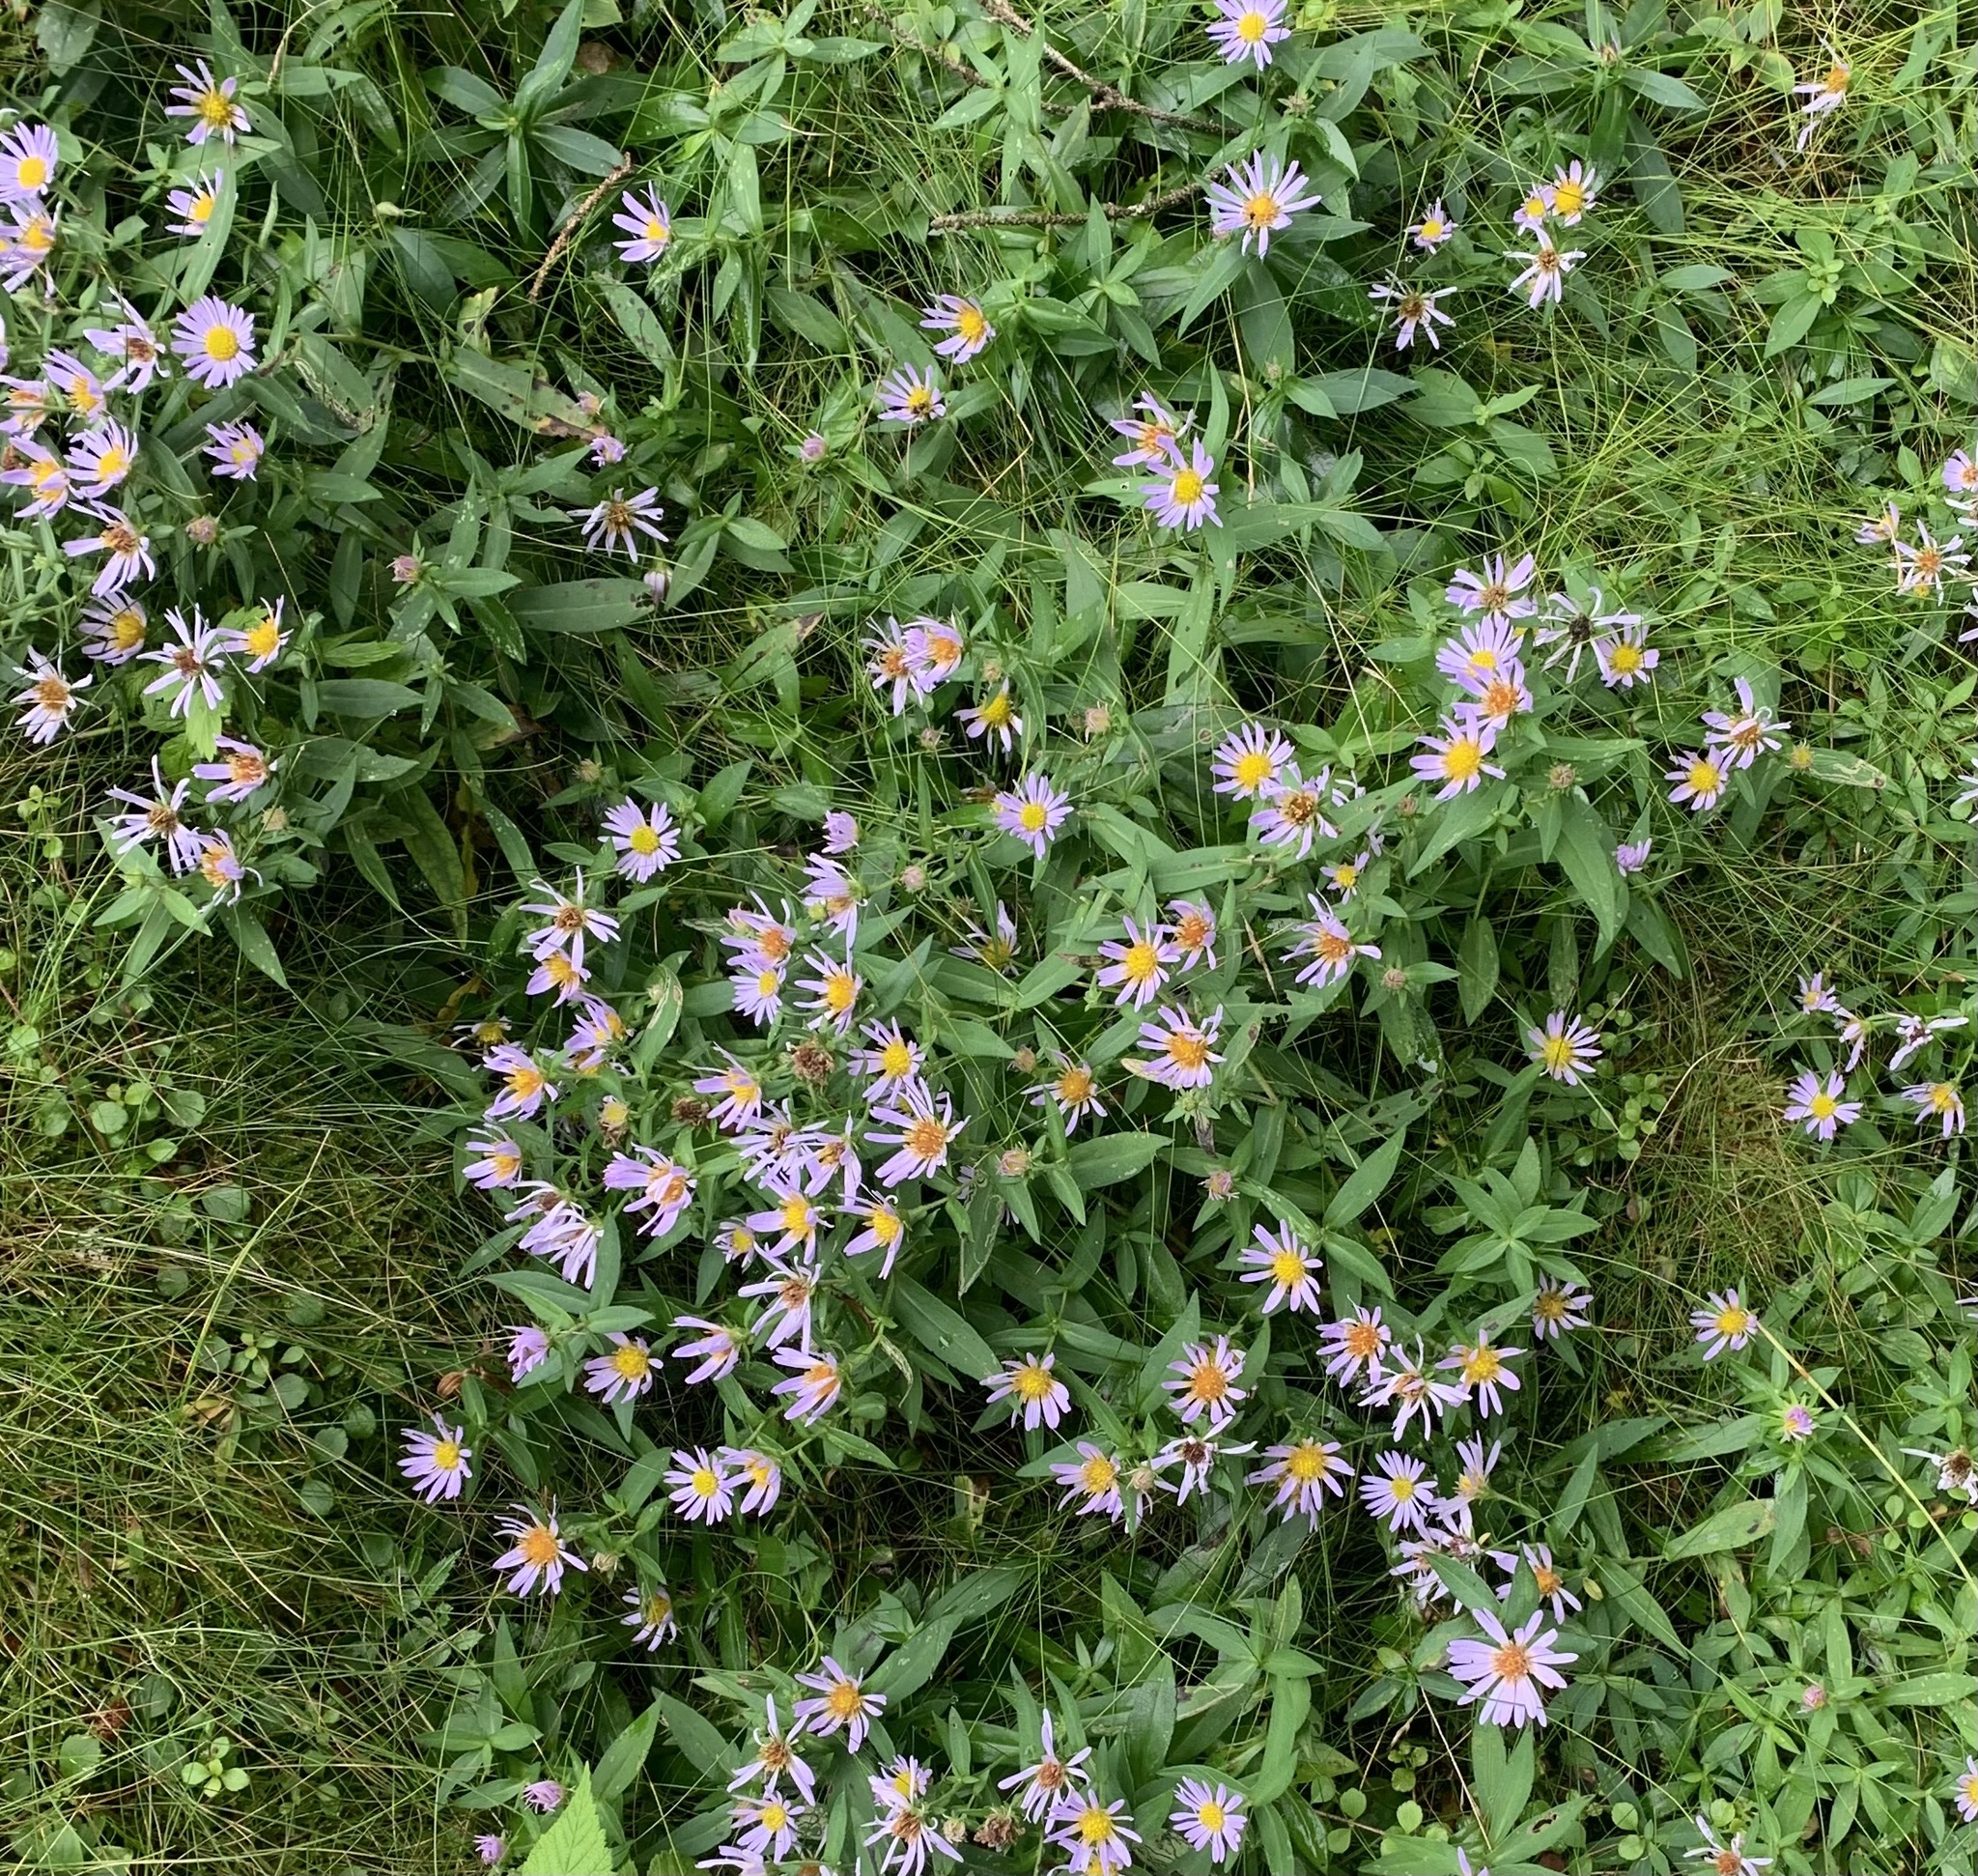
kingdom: Plantae
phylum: Tracheophyta
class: Magnoliopsida
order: Asterales
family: Asteraceae
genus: Symphyotrichum
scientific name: Symphyotrichum novi-belgii
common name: Michaelmas daisy
